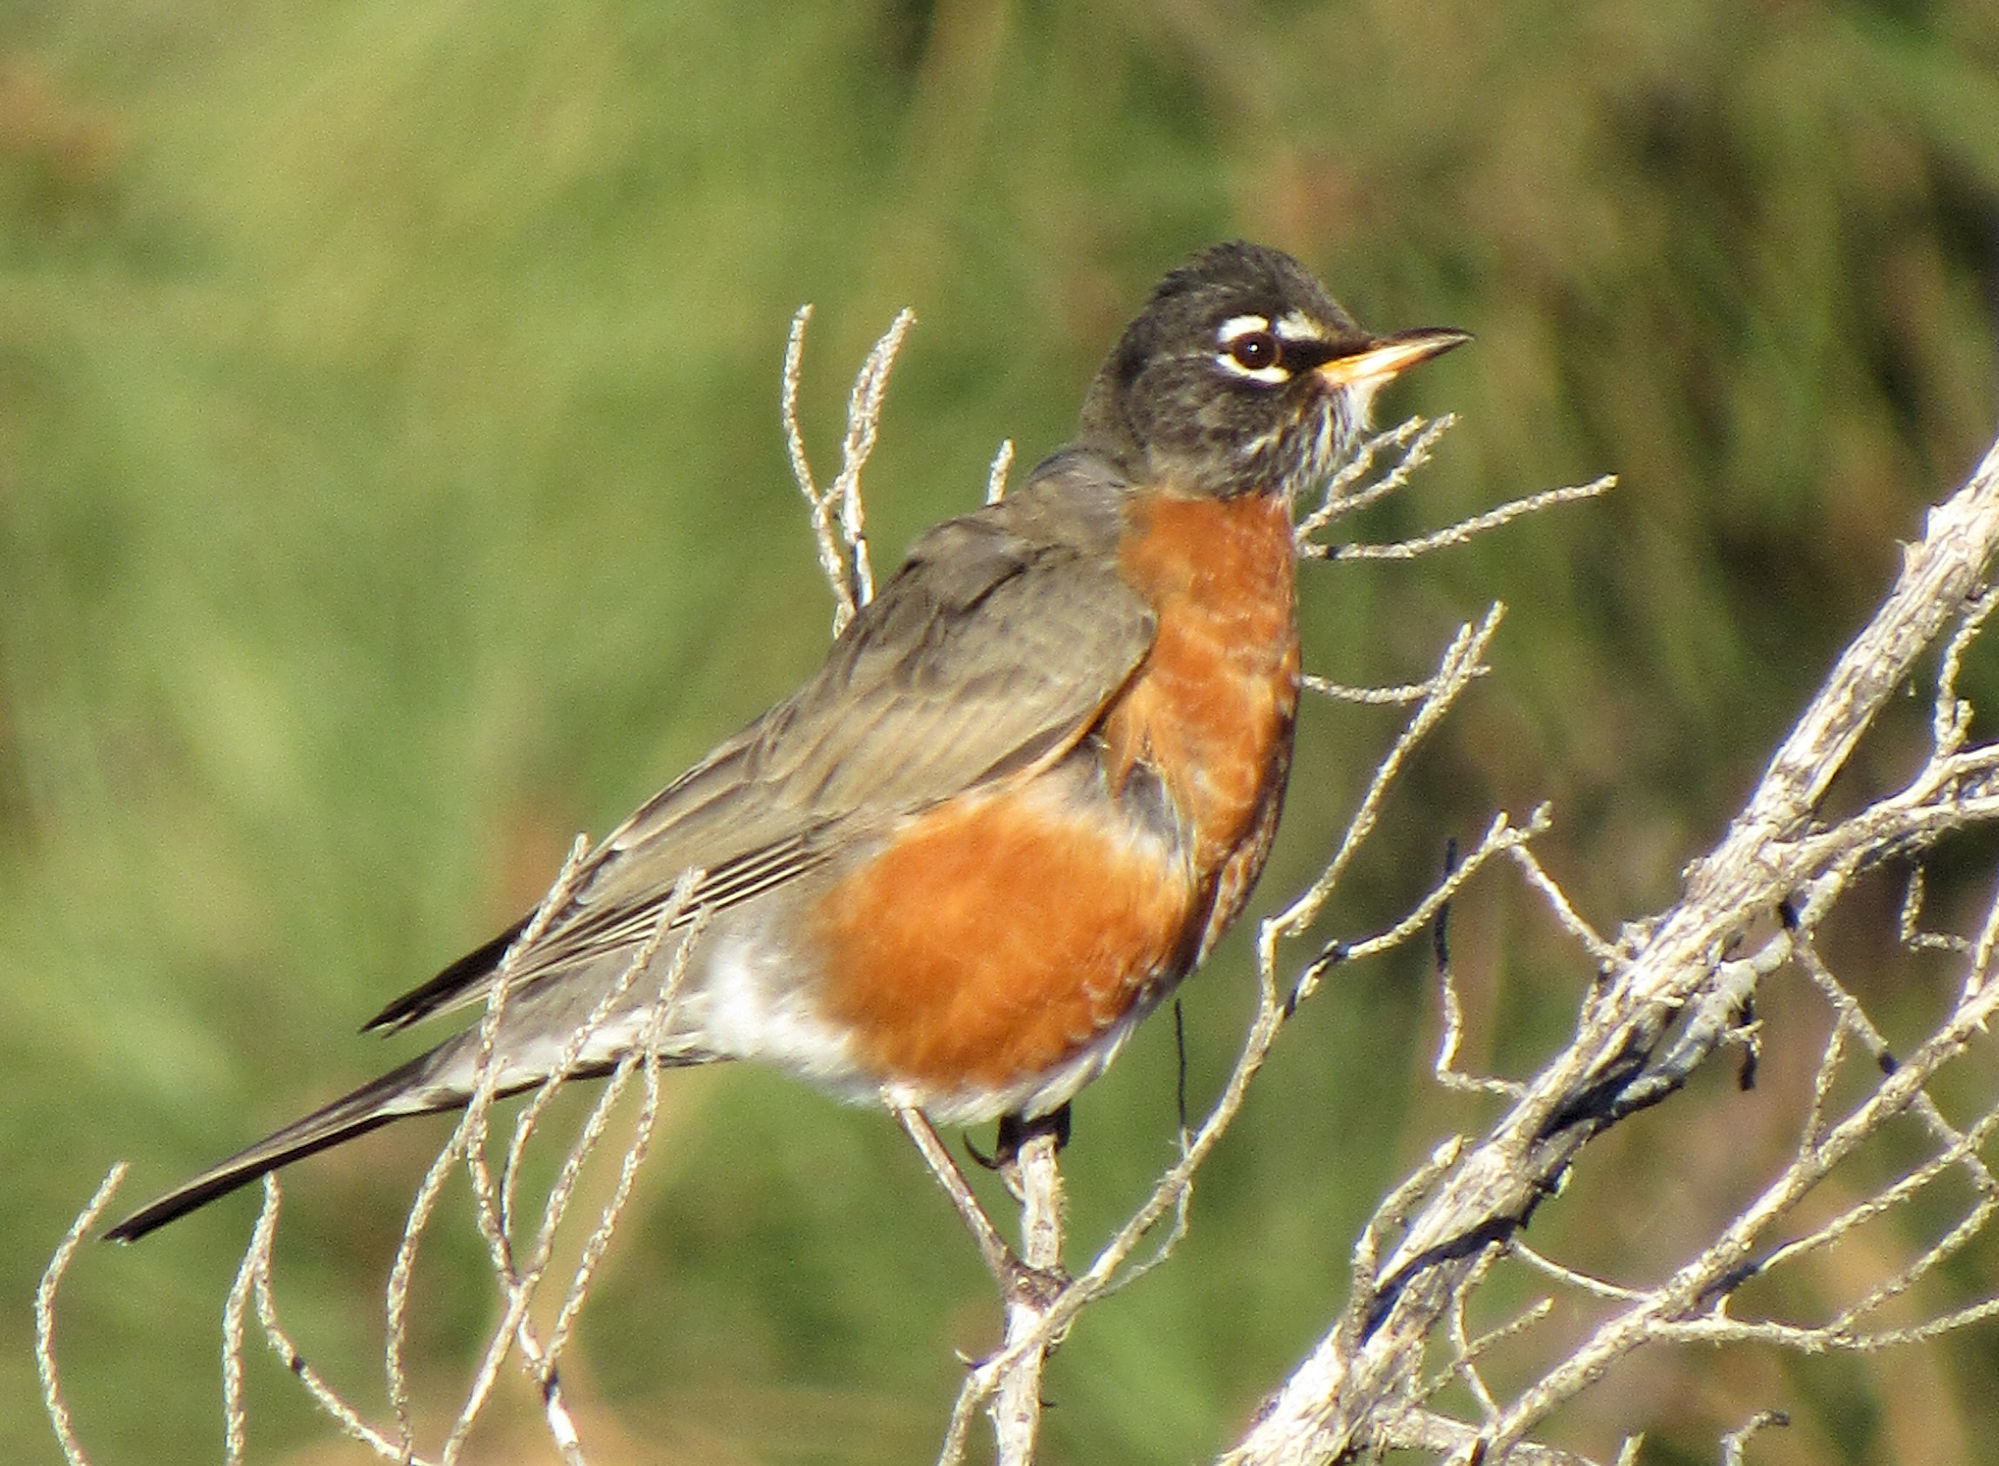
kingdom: Animalia
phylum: Chordata
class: Aves
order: Passeriformes
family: Turdidae
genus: Turdus
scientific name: Turdus migratorius
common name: American robin
